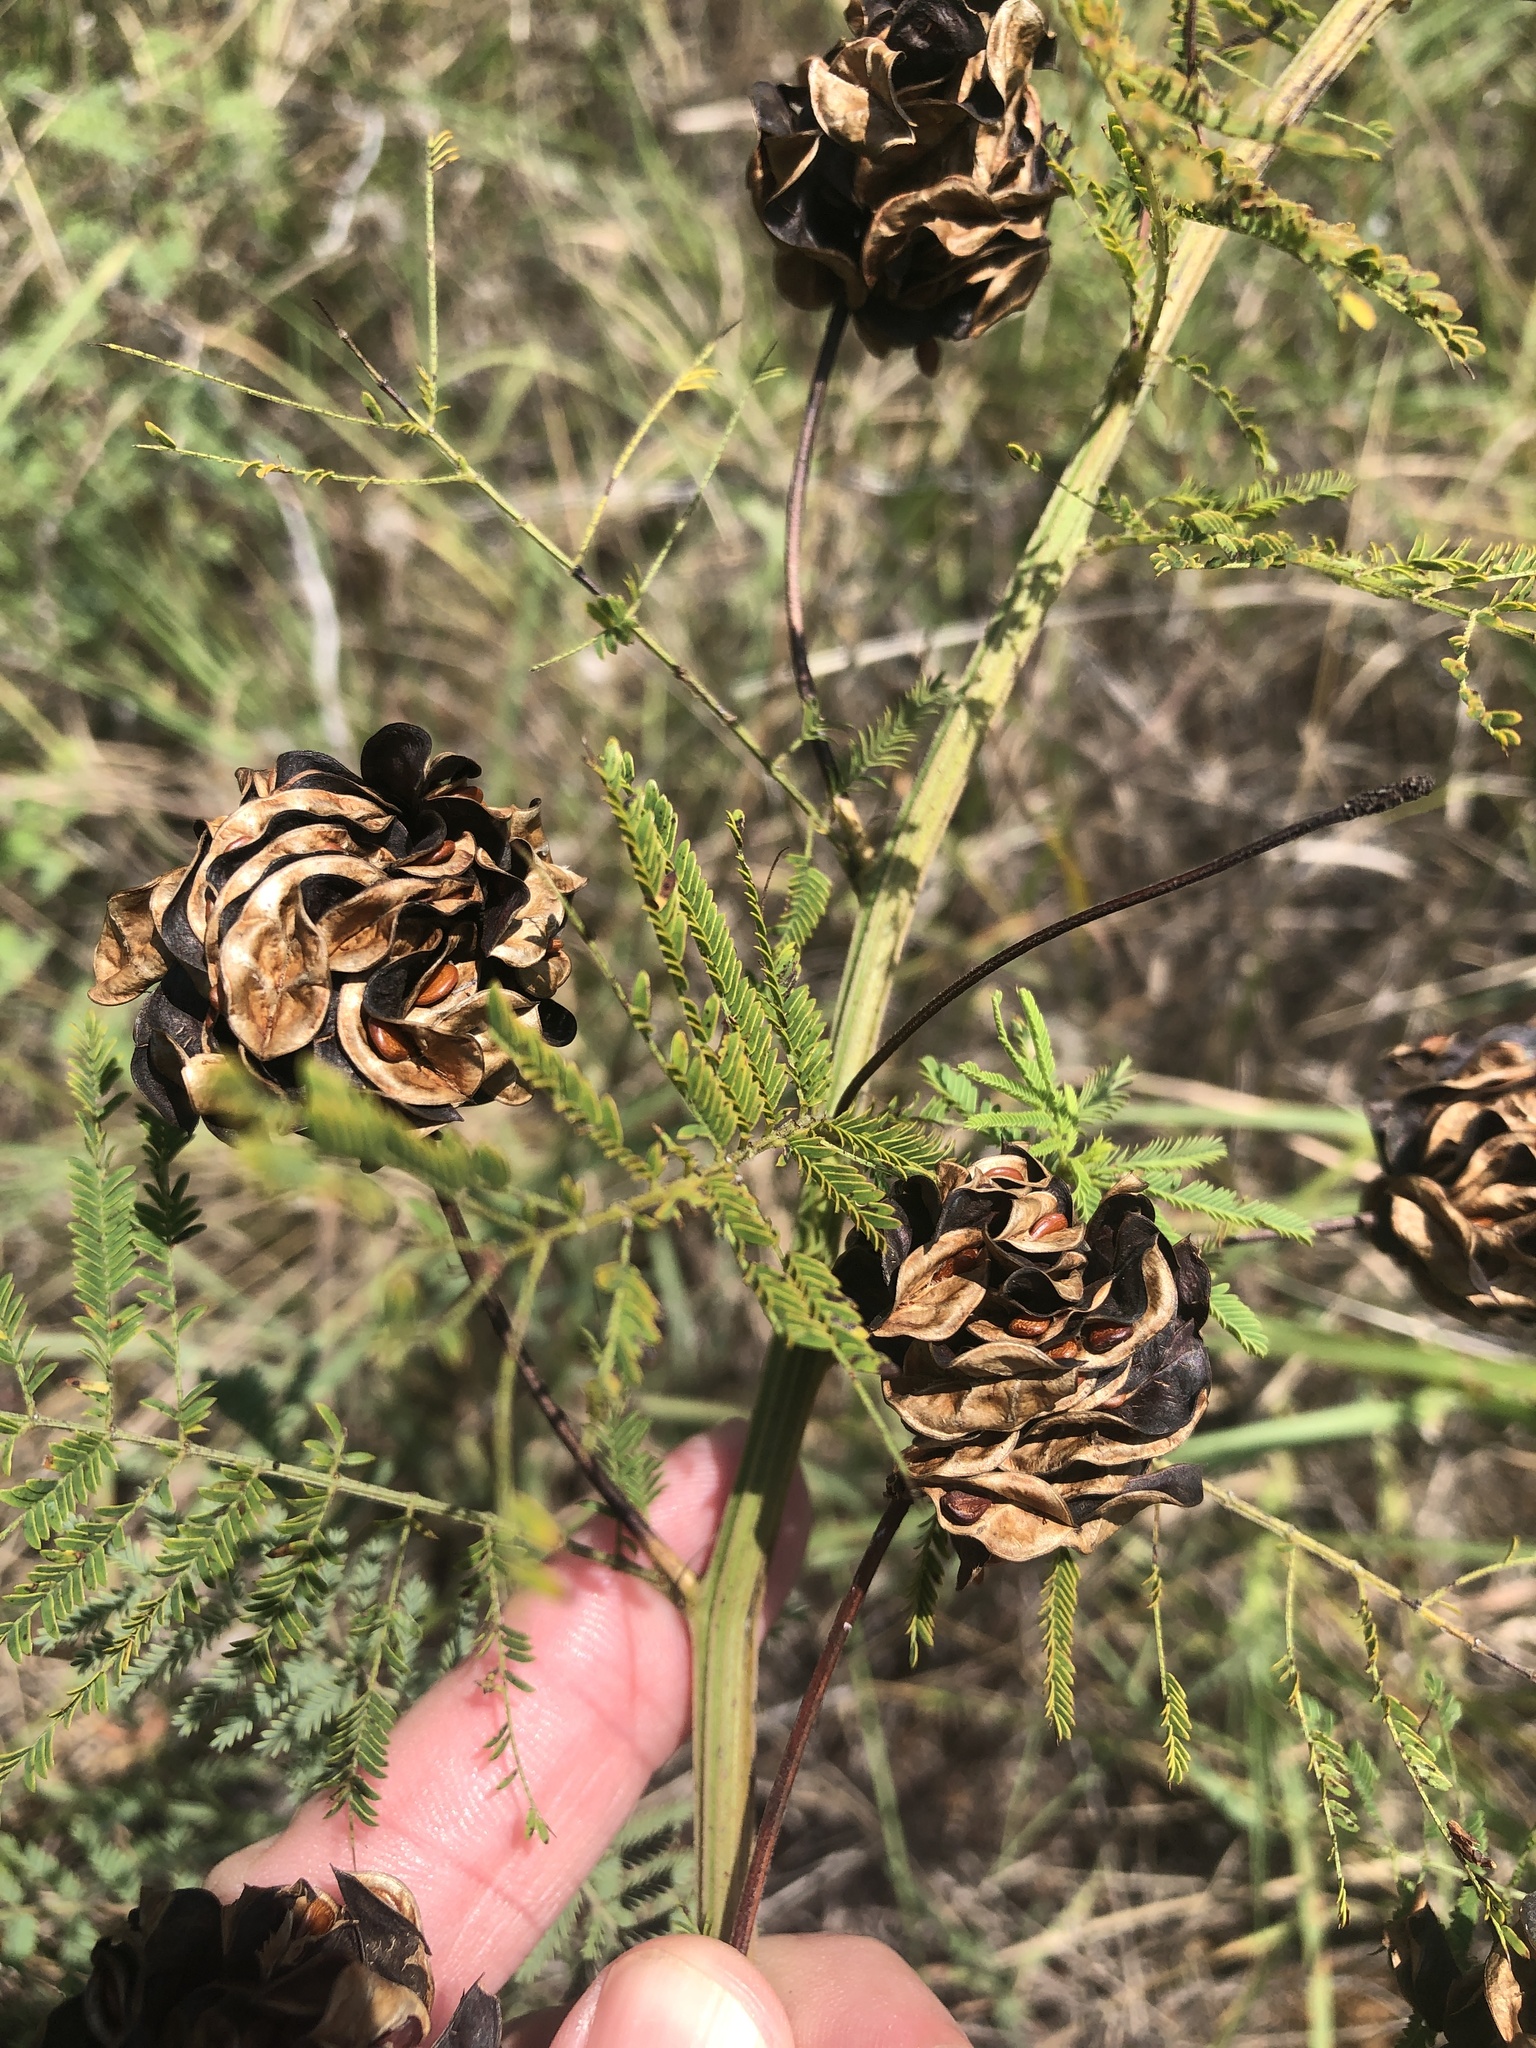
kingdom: Plantae
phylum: Tracheophyta
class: Magnoliopsida
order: Fabales
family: Fabaceae
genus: Desmanthus
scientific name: Desmanthus illinoensis
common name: Illinois bundle-flower
